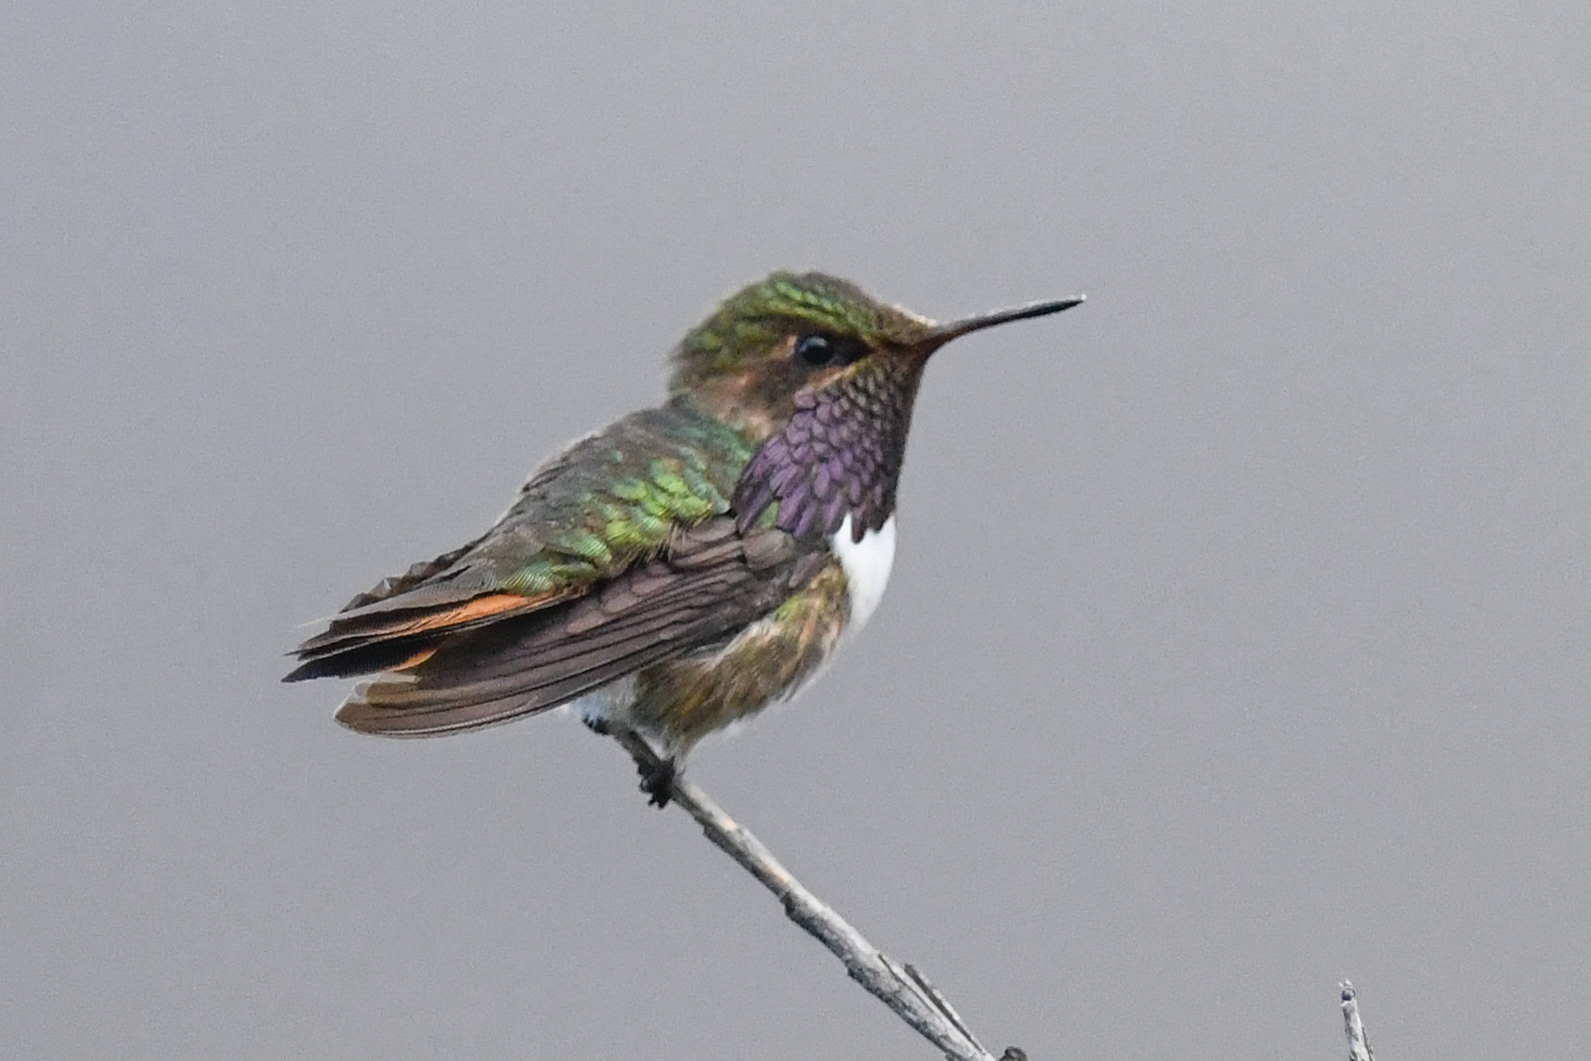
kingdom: Animalia
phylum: Chordata
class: Aves
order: Apodiformes
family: Trochilidae
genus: Selasphorus
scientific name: Selasphorus flammula
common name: Volcano hummingbird
